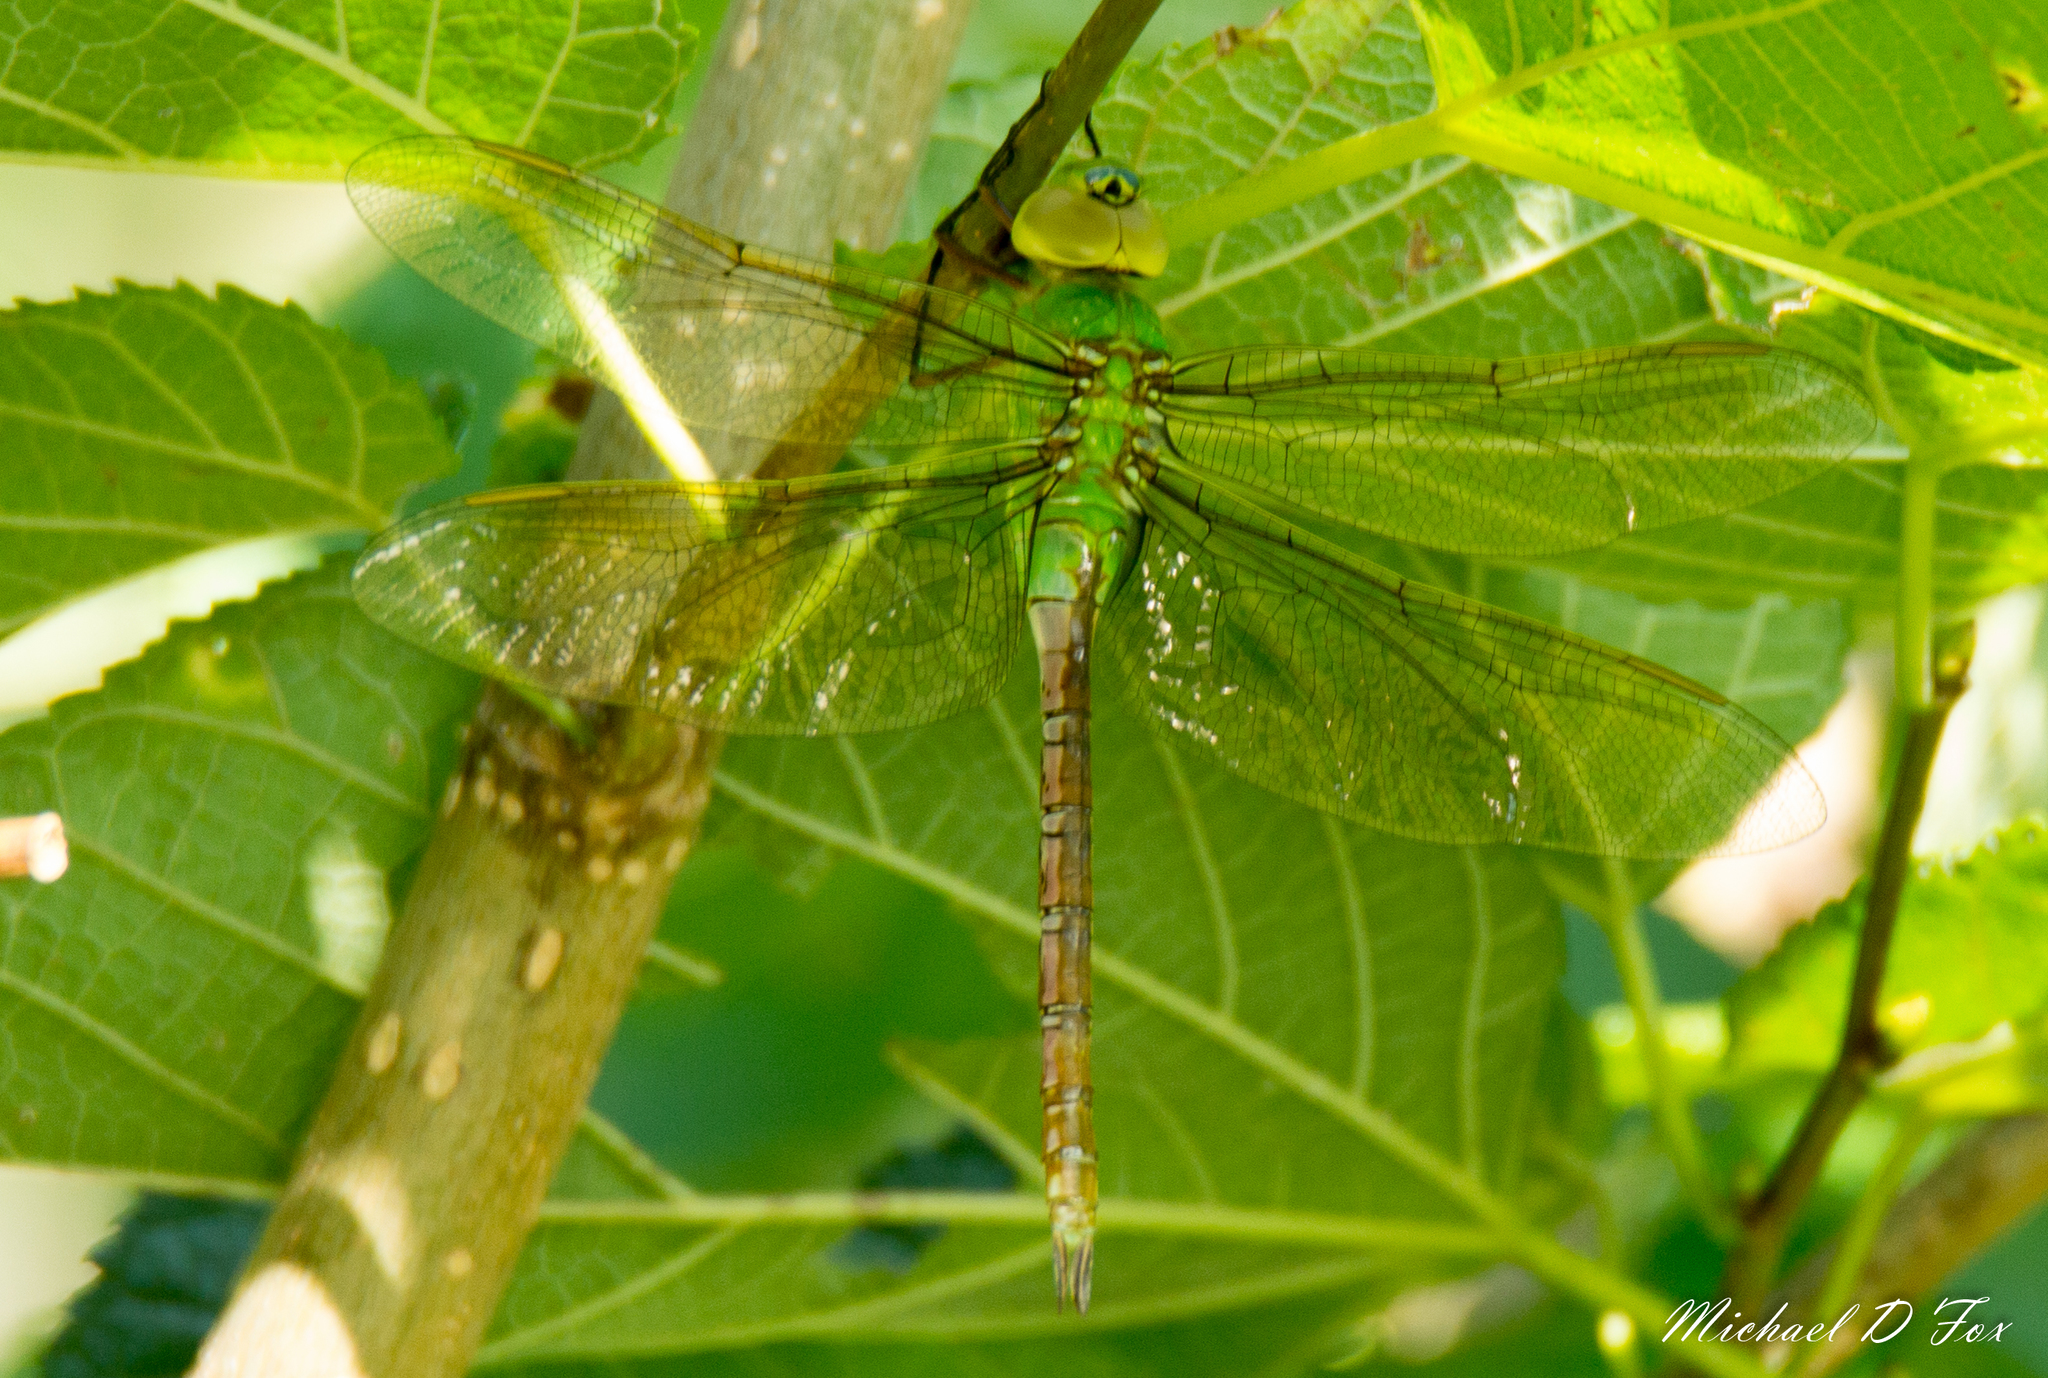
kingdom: Animalia
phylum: Arthropoda
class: Insecta
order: Odonata
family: Aeshnidae
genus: Anax
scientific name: Anax junius
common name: Common green darner
